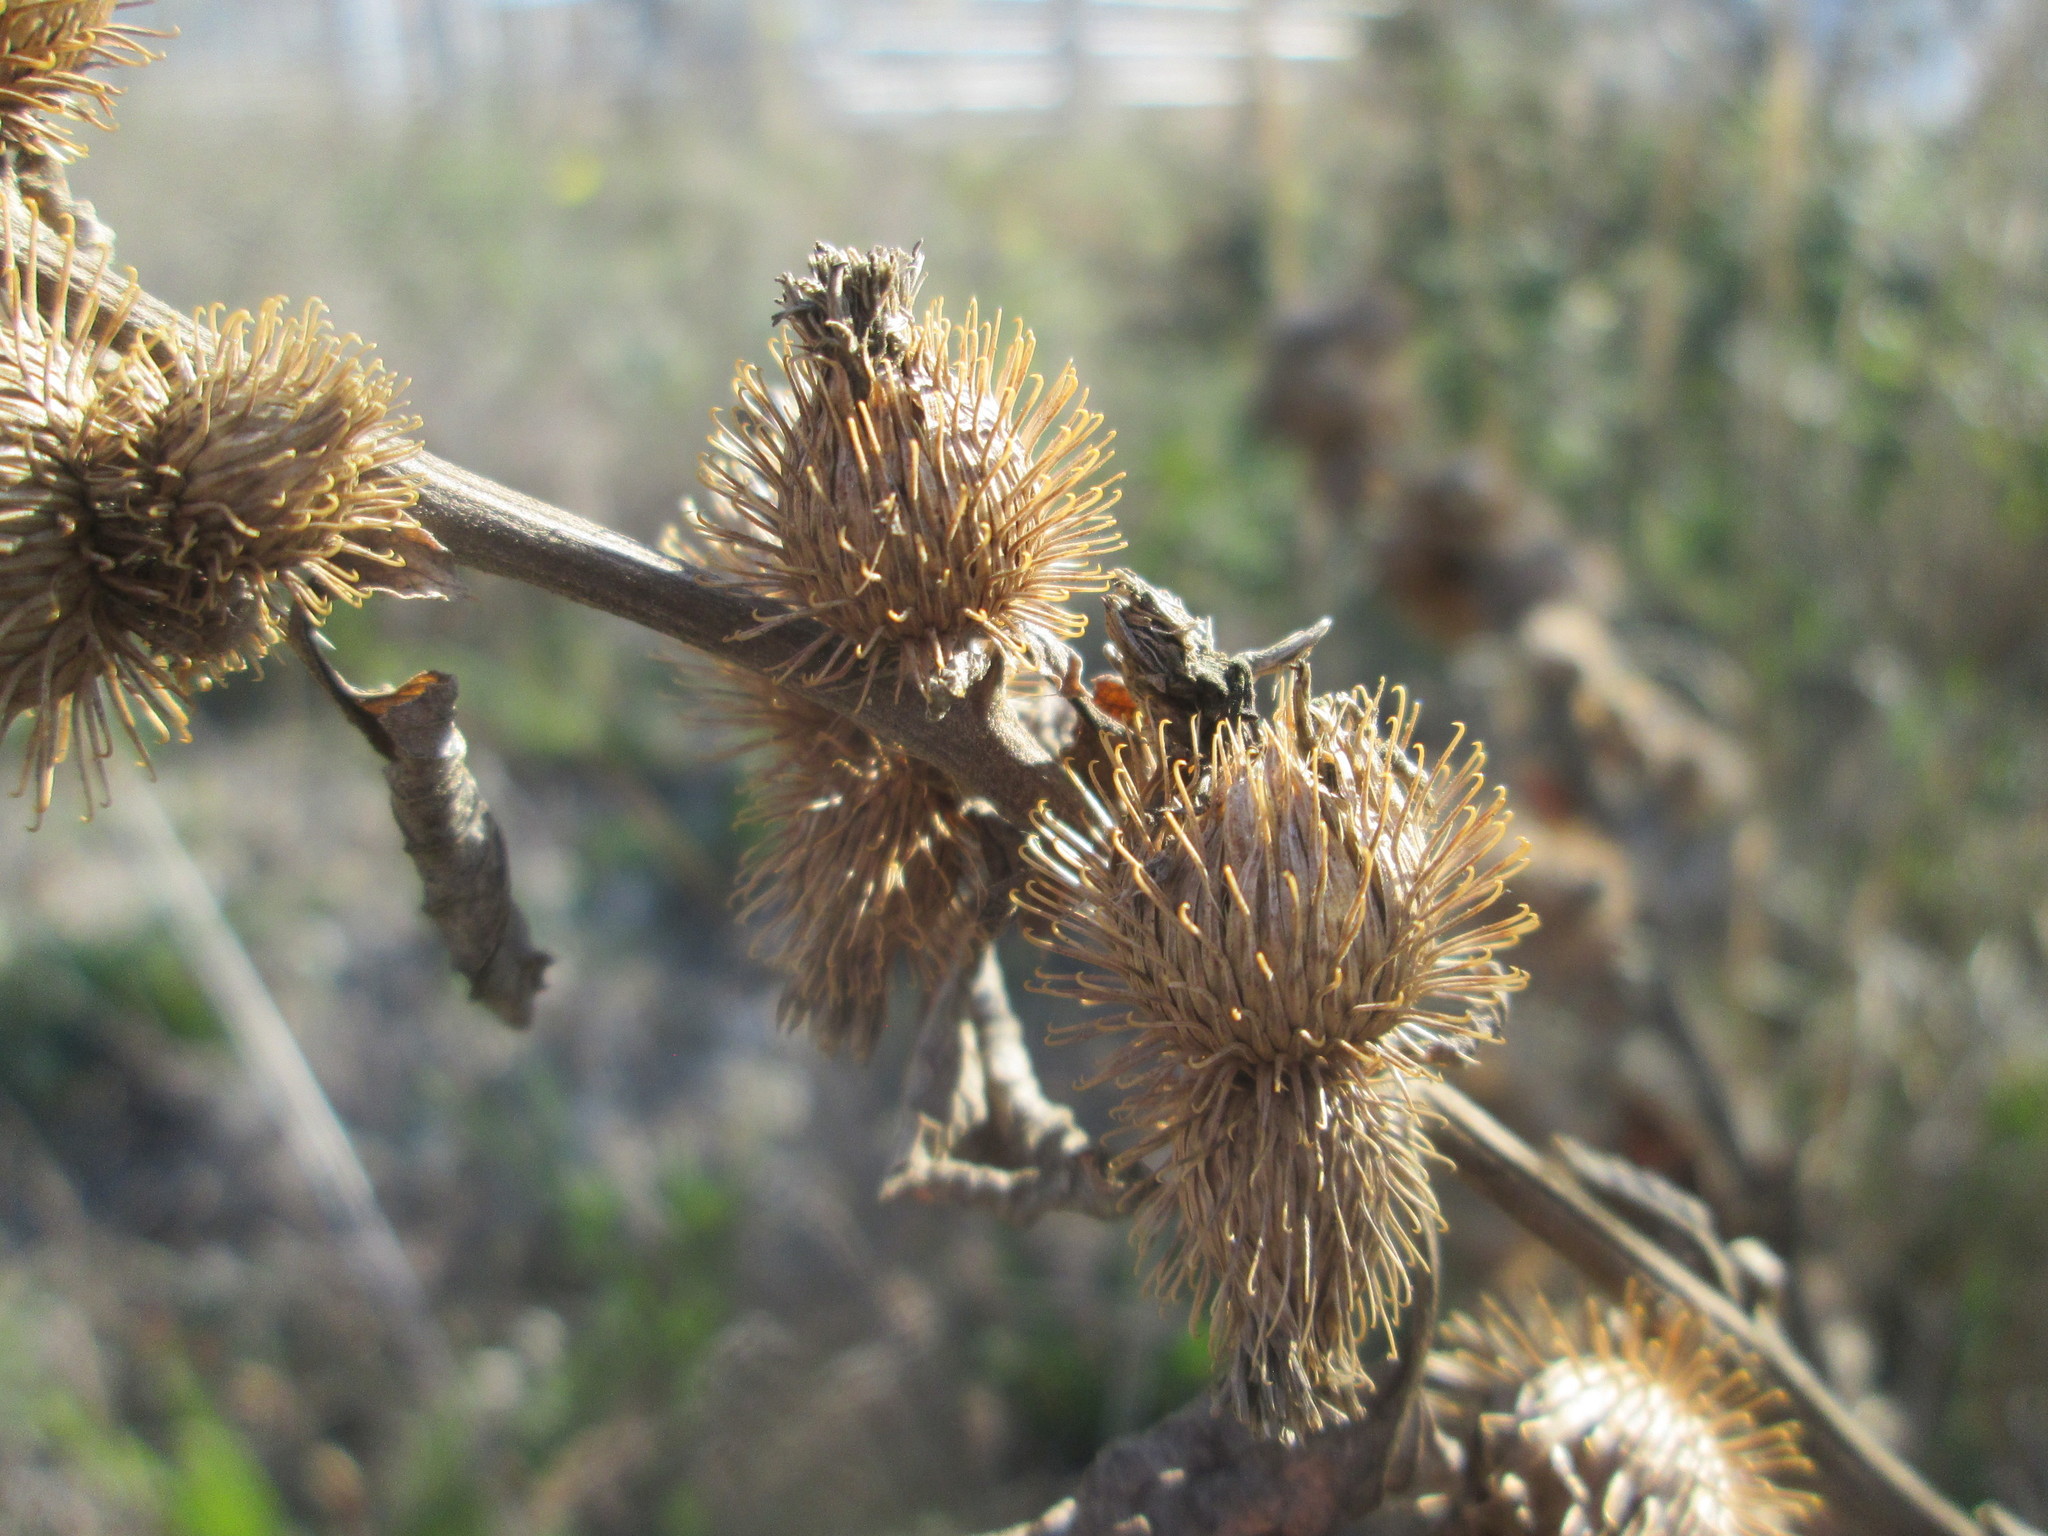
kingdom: Plantae
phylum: Tracheophyta
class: Magnoliopsida
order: Asterales
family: Asteraceae
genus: Arctium
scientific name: Arctium minus
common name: Lesser burdock
